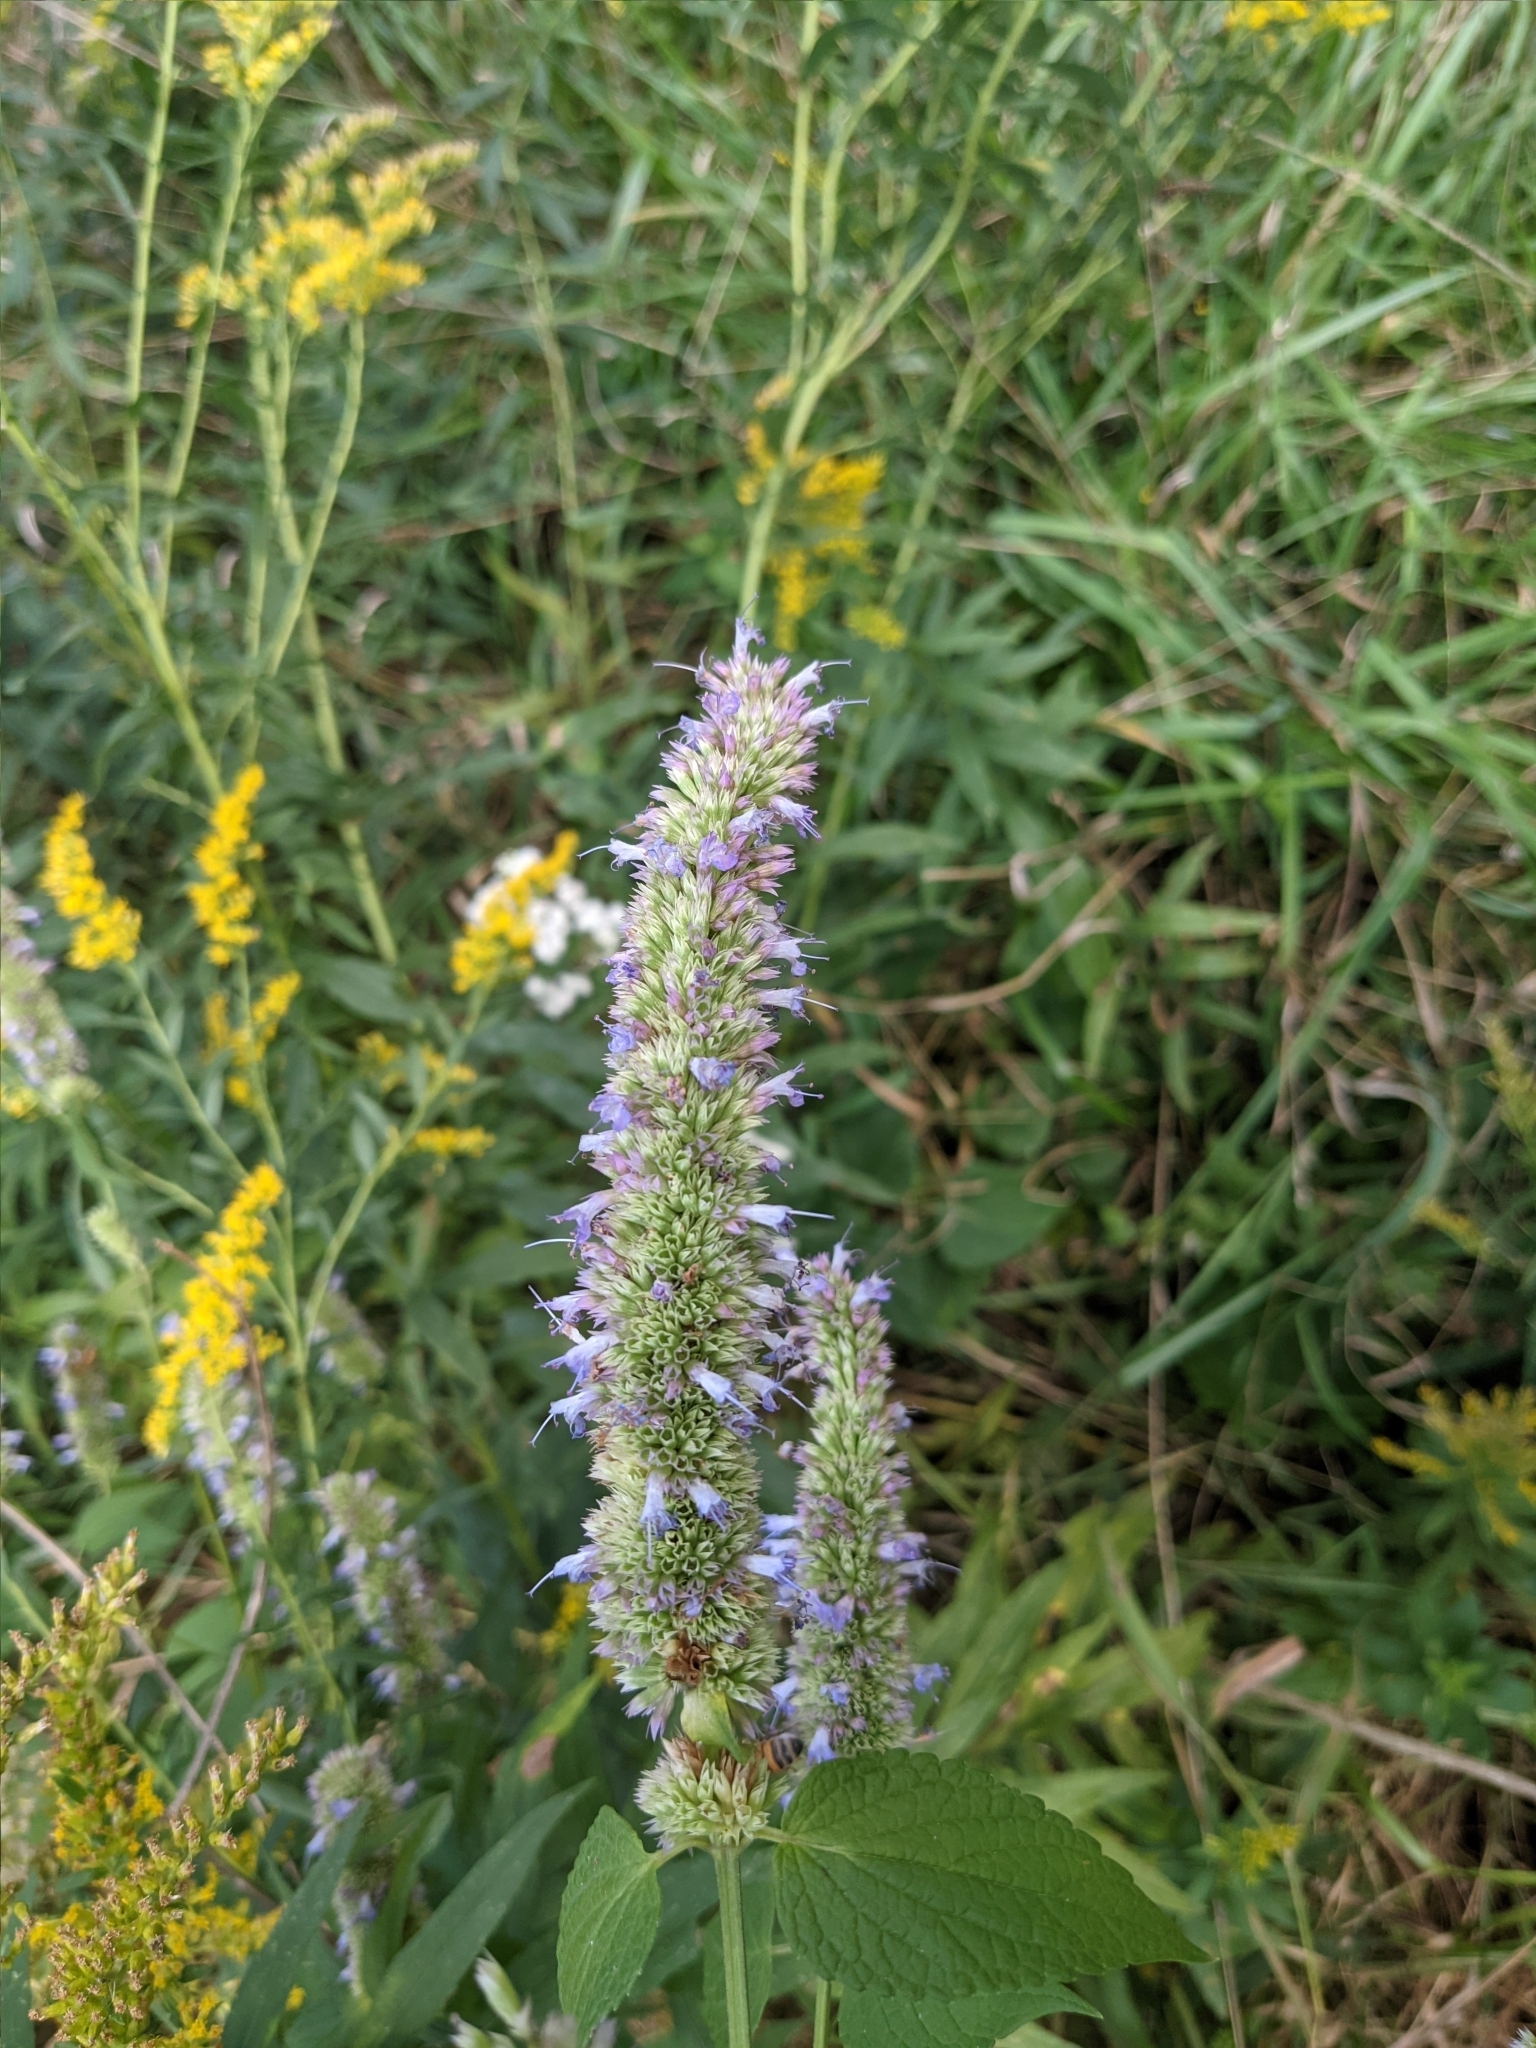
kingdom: Plantae
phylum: Tracheophyta
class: Magnoliopsida
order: Lamiales
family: Lamiaceae
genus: Agastache
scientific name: Agastache scrophulariifolia
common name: Figwort giant hyssop
